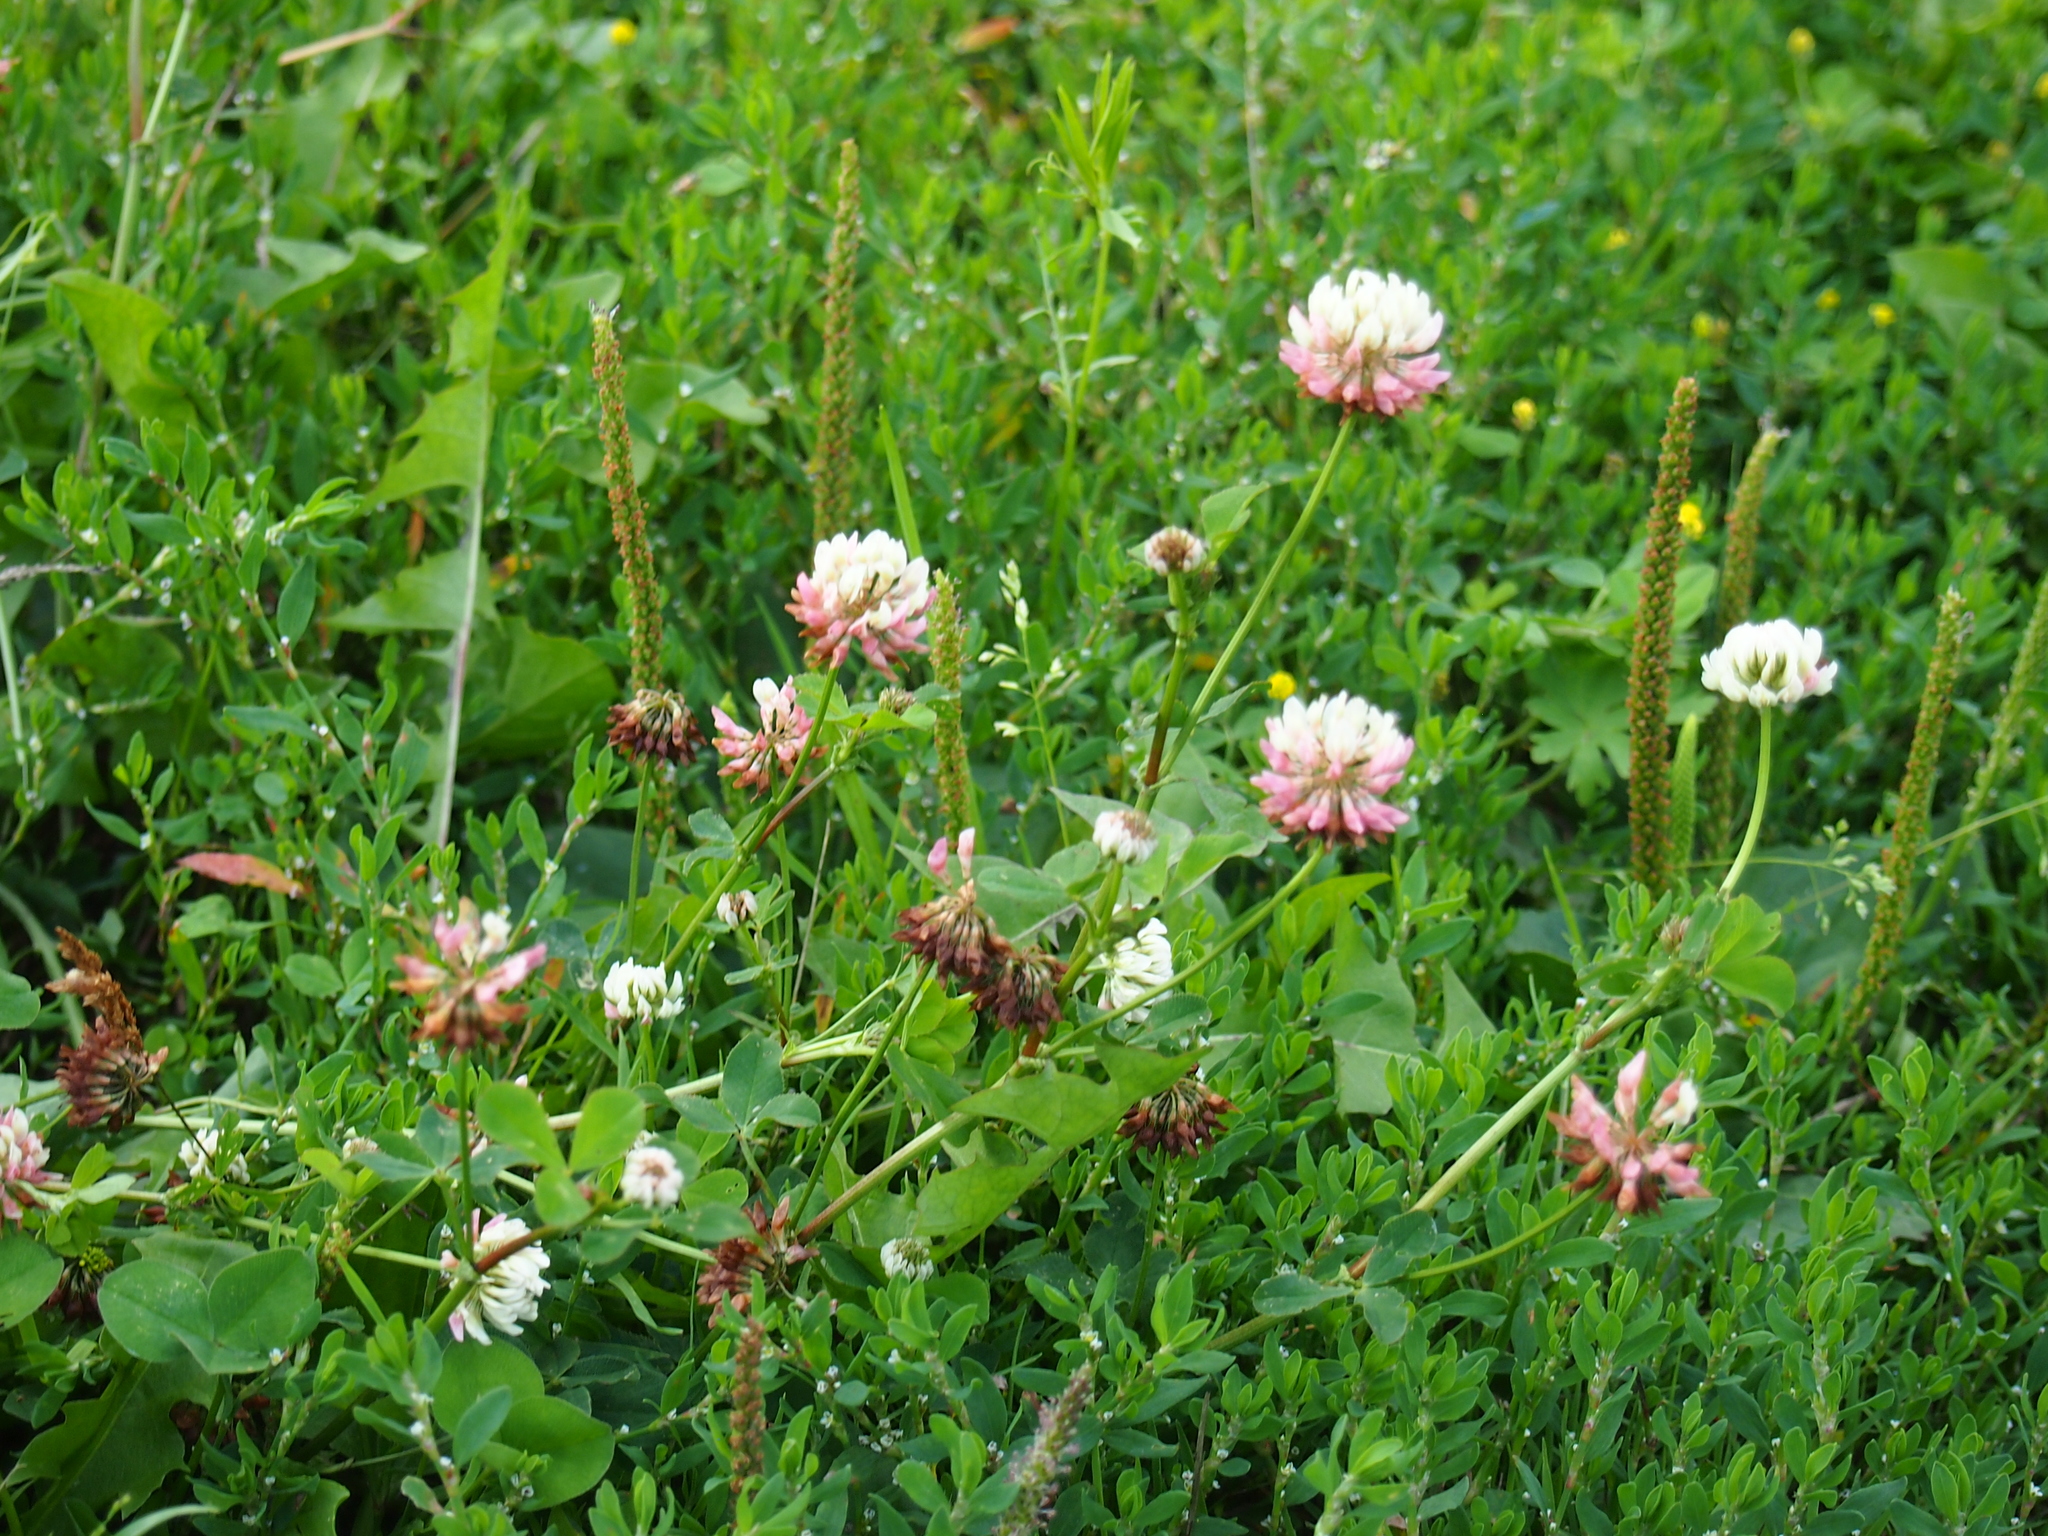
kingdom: Plantae
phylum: Tracheophyta
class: Magnoliopsida
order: Fabales
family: Fabaceae
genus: Trifolium
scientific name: Trifolium hybridum
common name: Alsike clover
